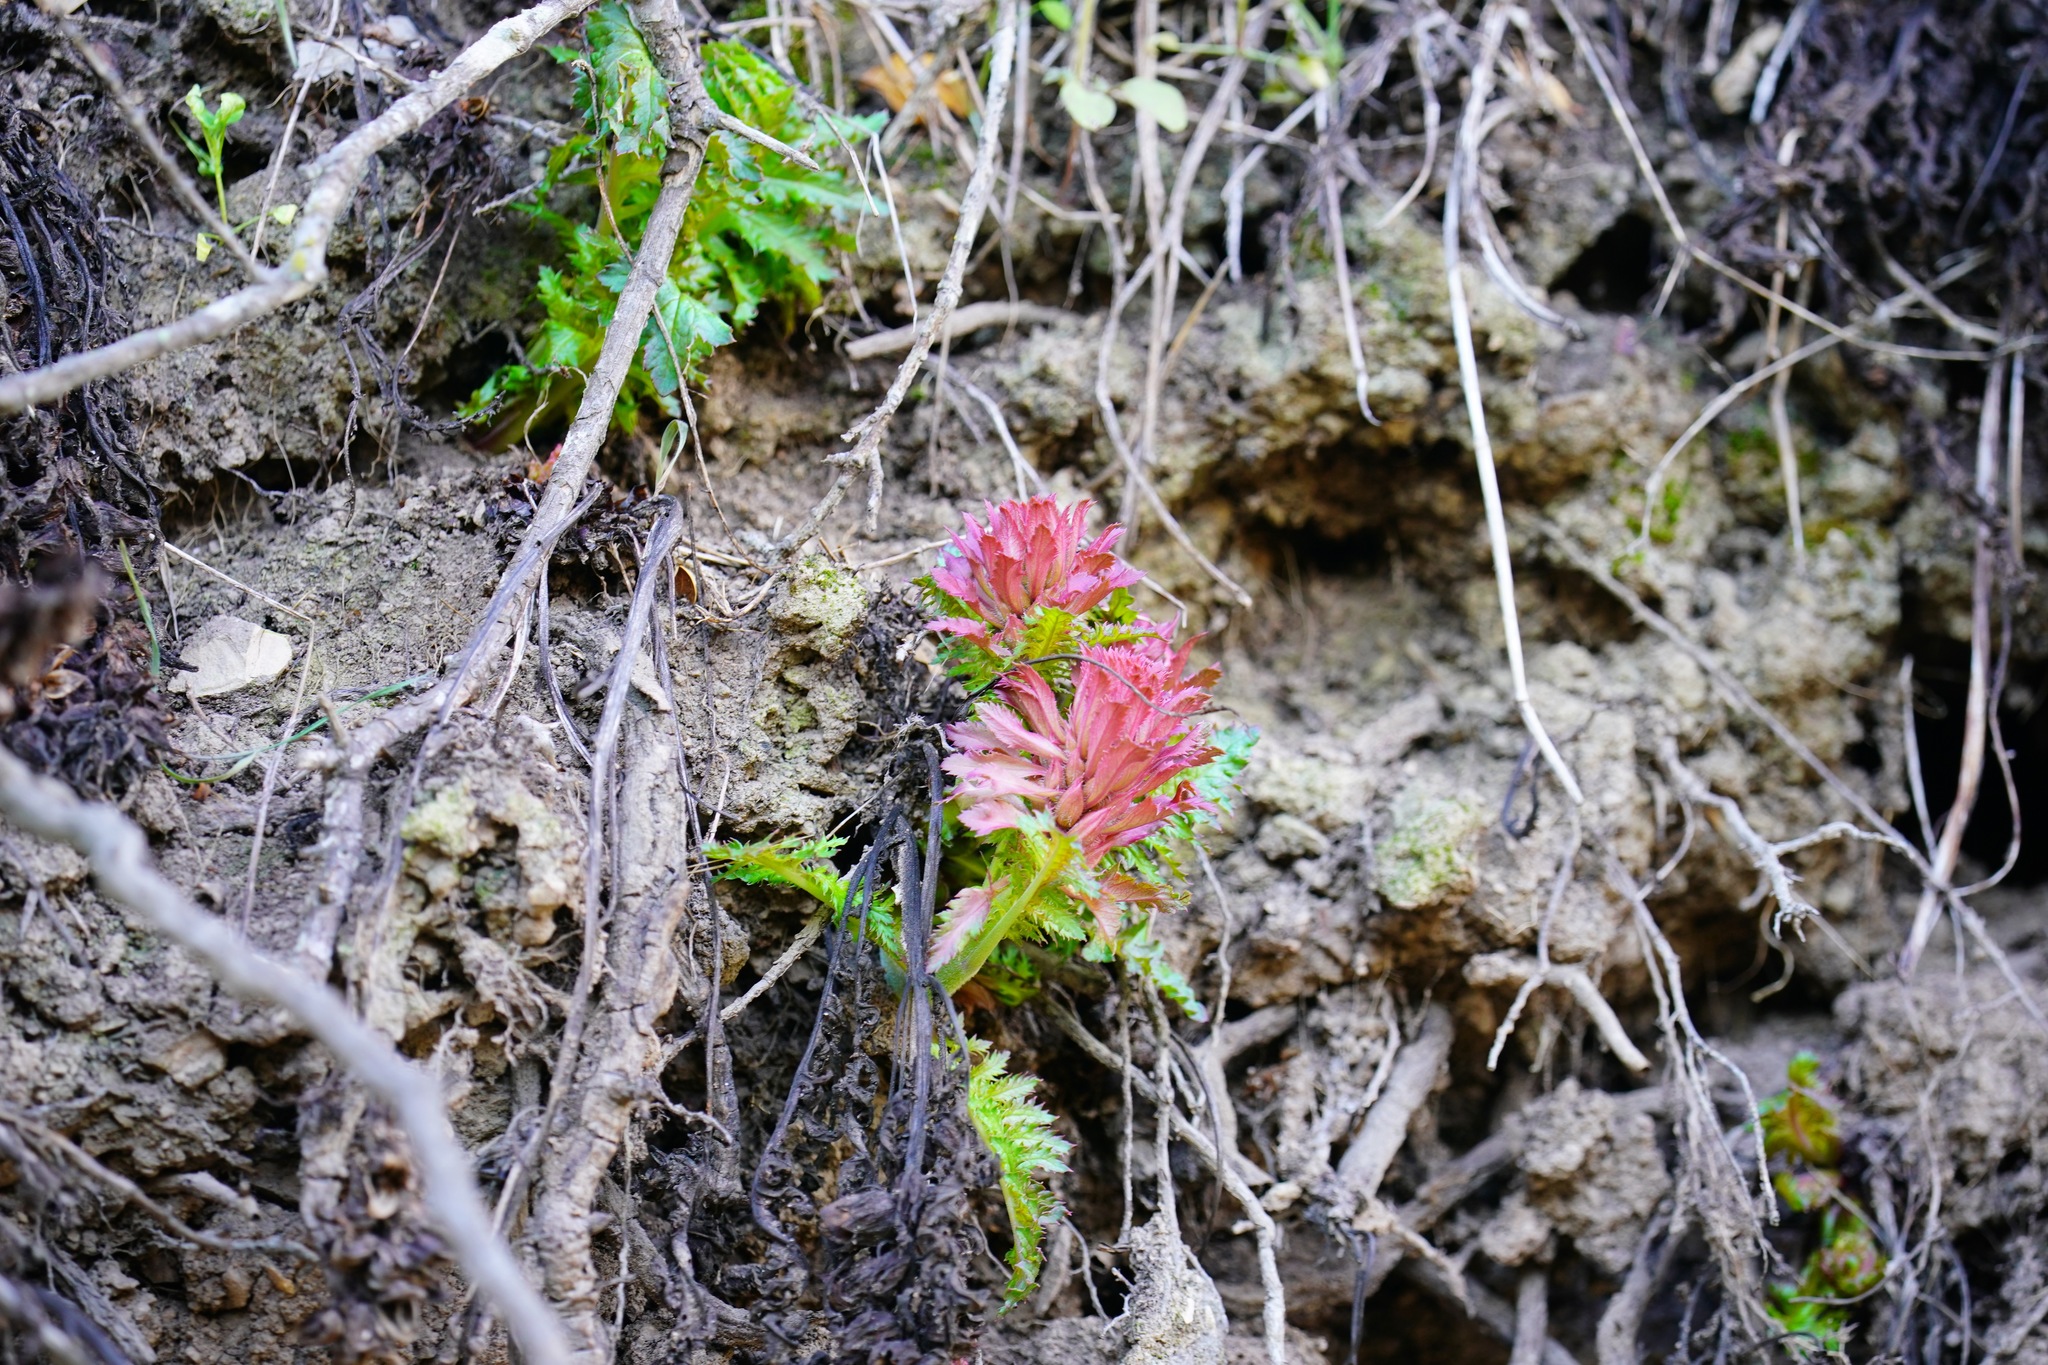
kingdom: Plantae
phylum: Tracheophyta
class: Magnoliopsida
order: Lamiales
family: Orobanchaceae
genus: Pedicularis
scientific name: Pedicularis densiflora
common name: Indian warrior
